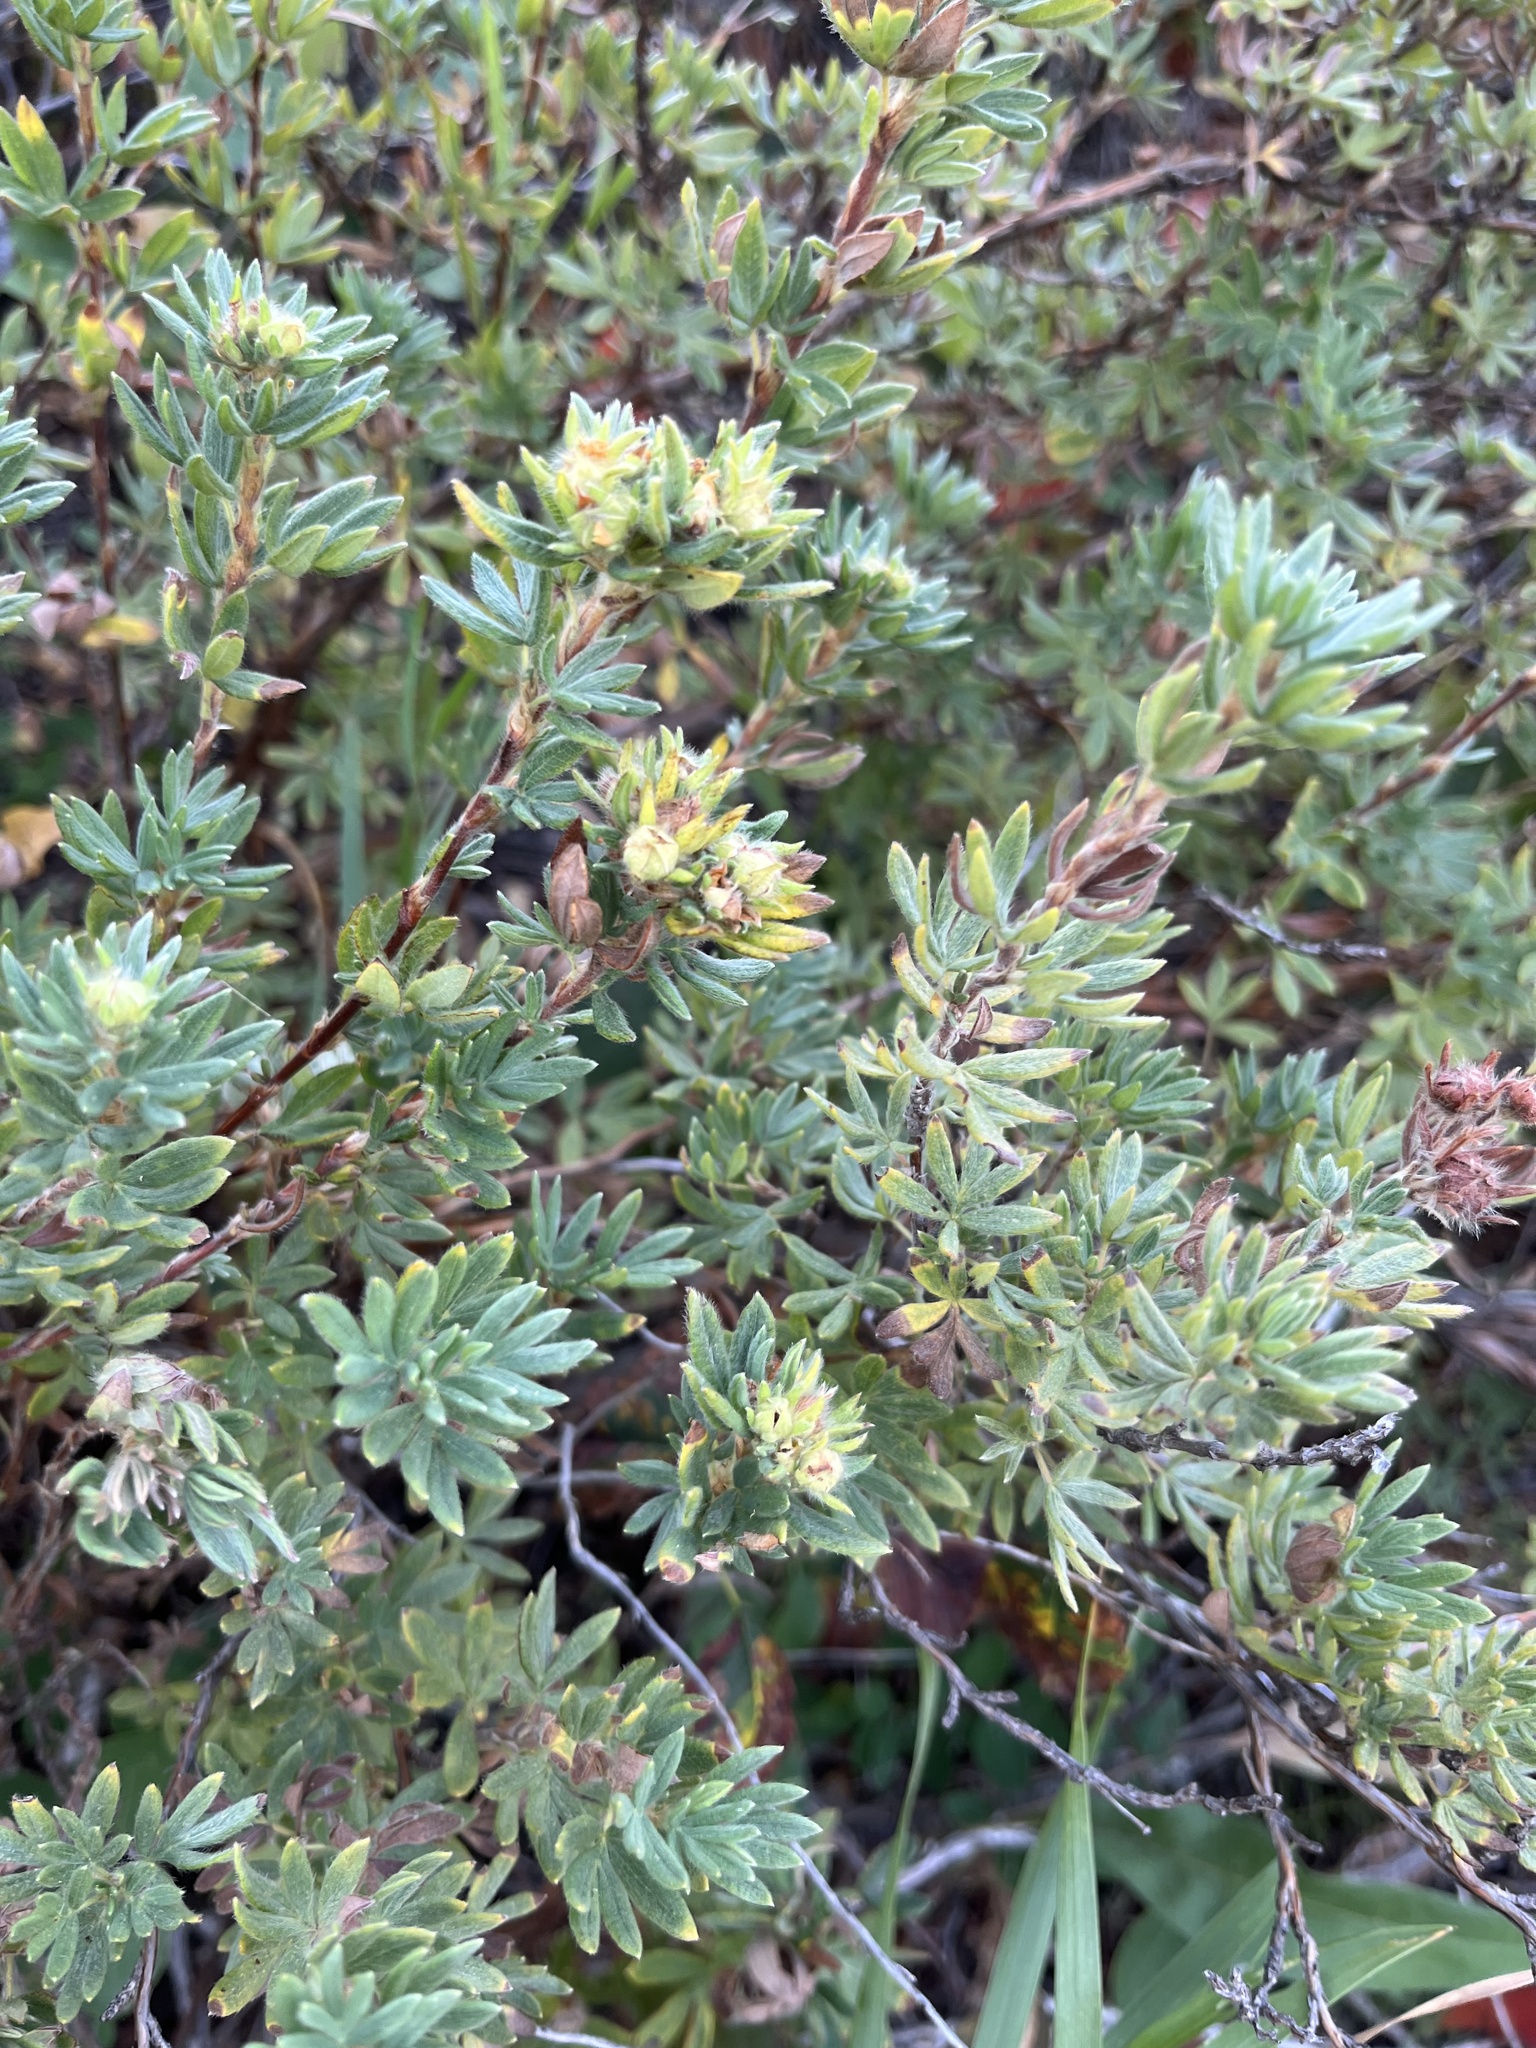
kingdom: Plantae
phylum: Tracheophyta
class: Magnoliopsida
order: Rosales
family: Rosaceae
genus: Dasiphora
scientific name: Dasiphora fruticosa
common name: Shrubby cinquefoil
